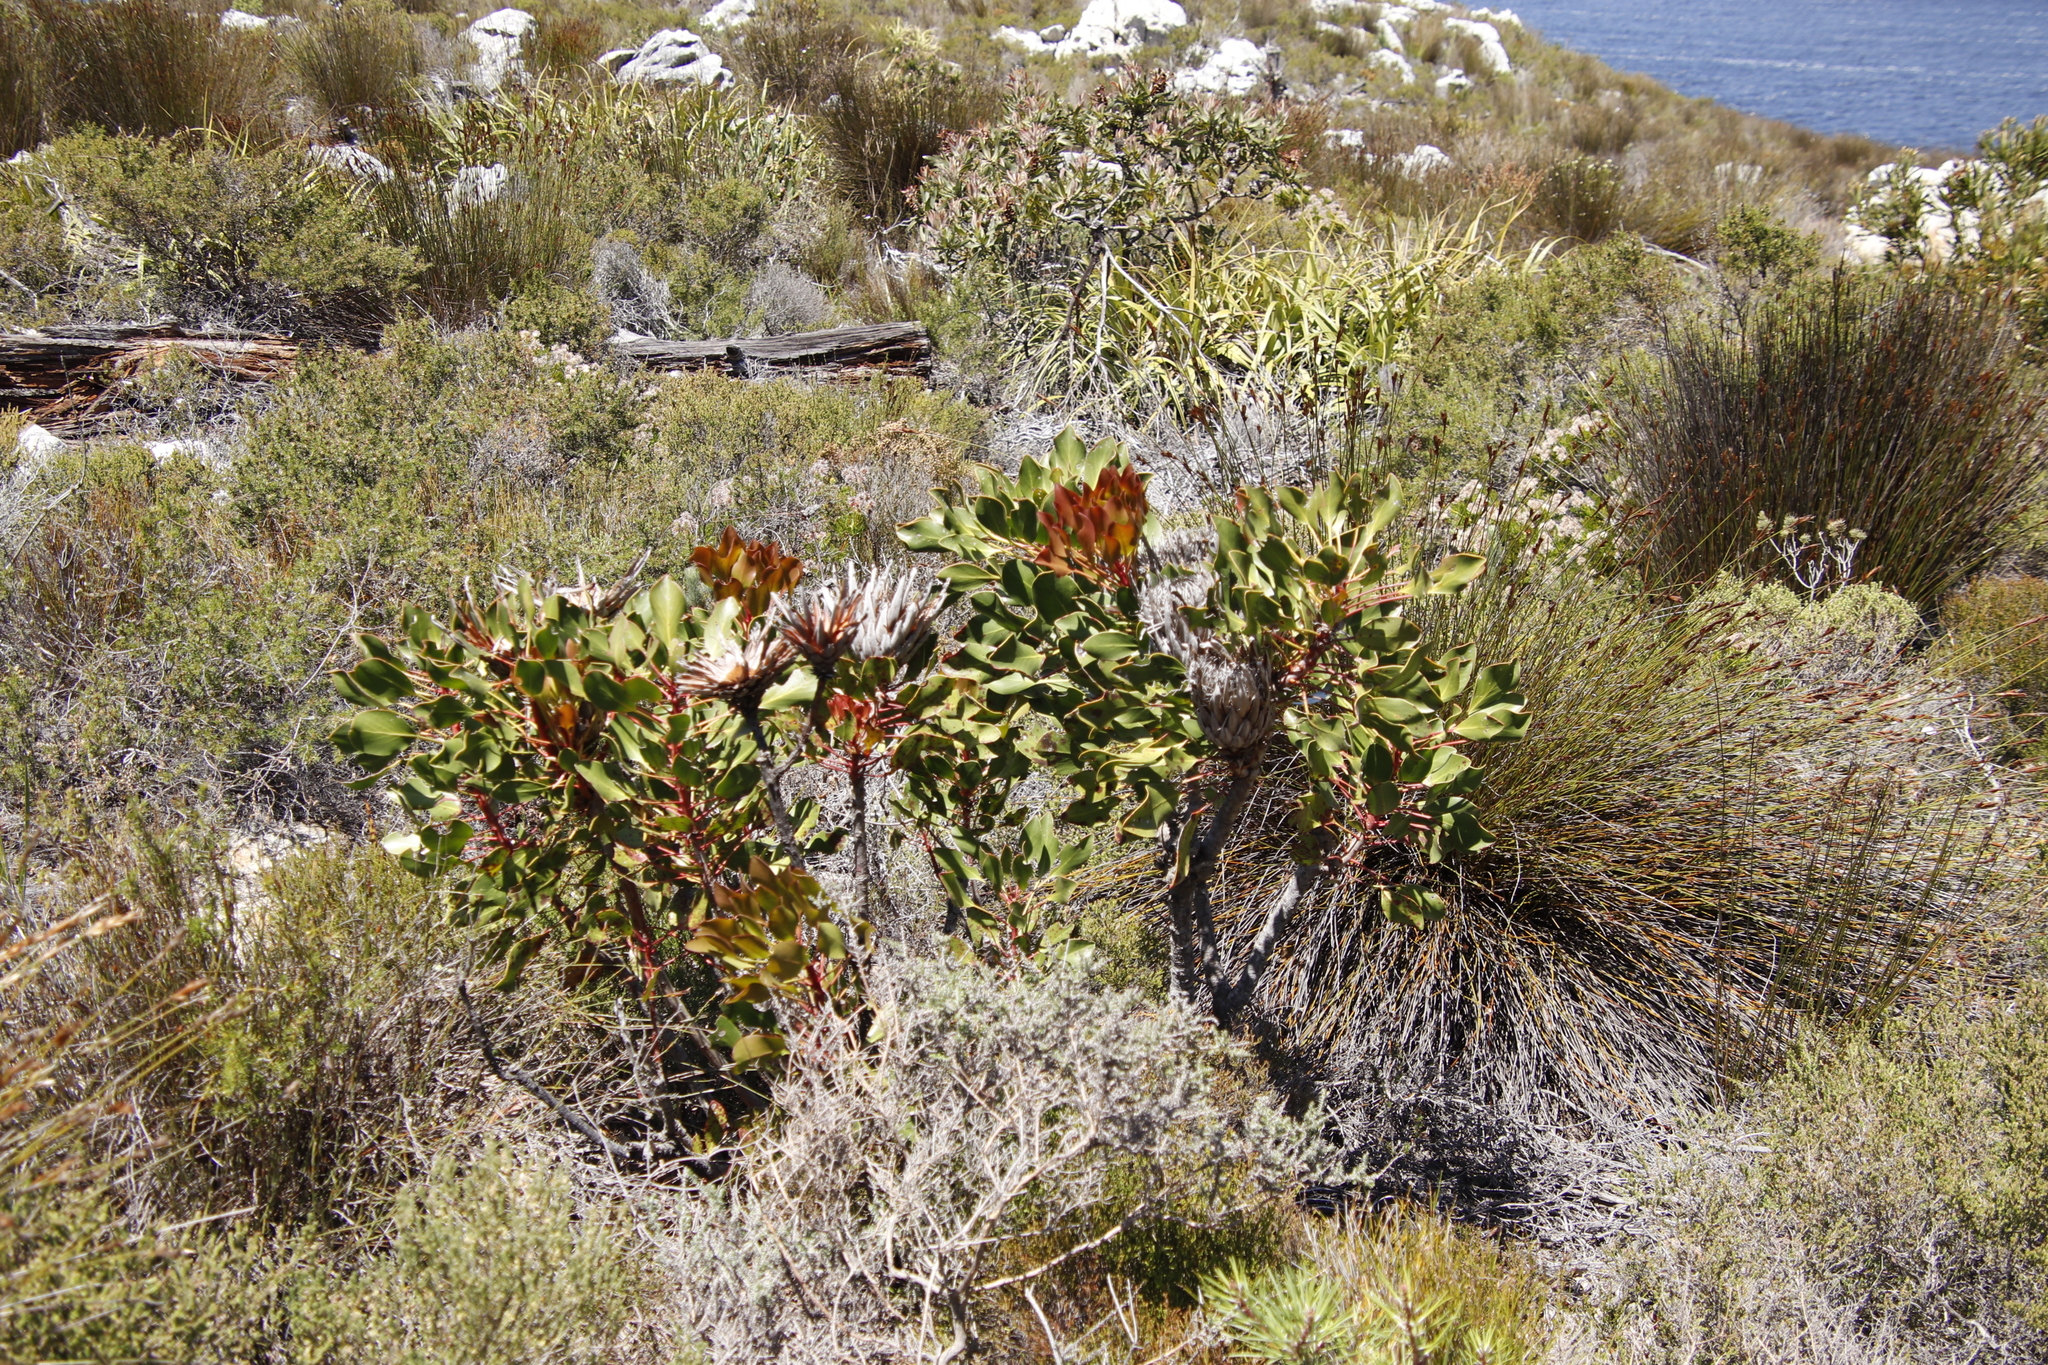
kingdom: Plantae
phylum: Tracheophyta
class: Magnoliopsida
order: Proteales
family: Proteaceae
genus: Protea
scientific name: Protea cynaroides
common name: King protea
